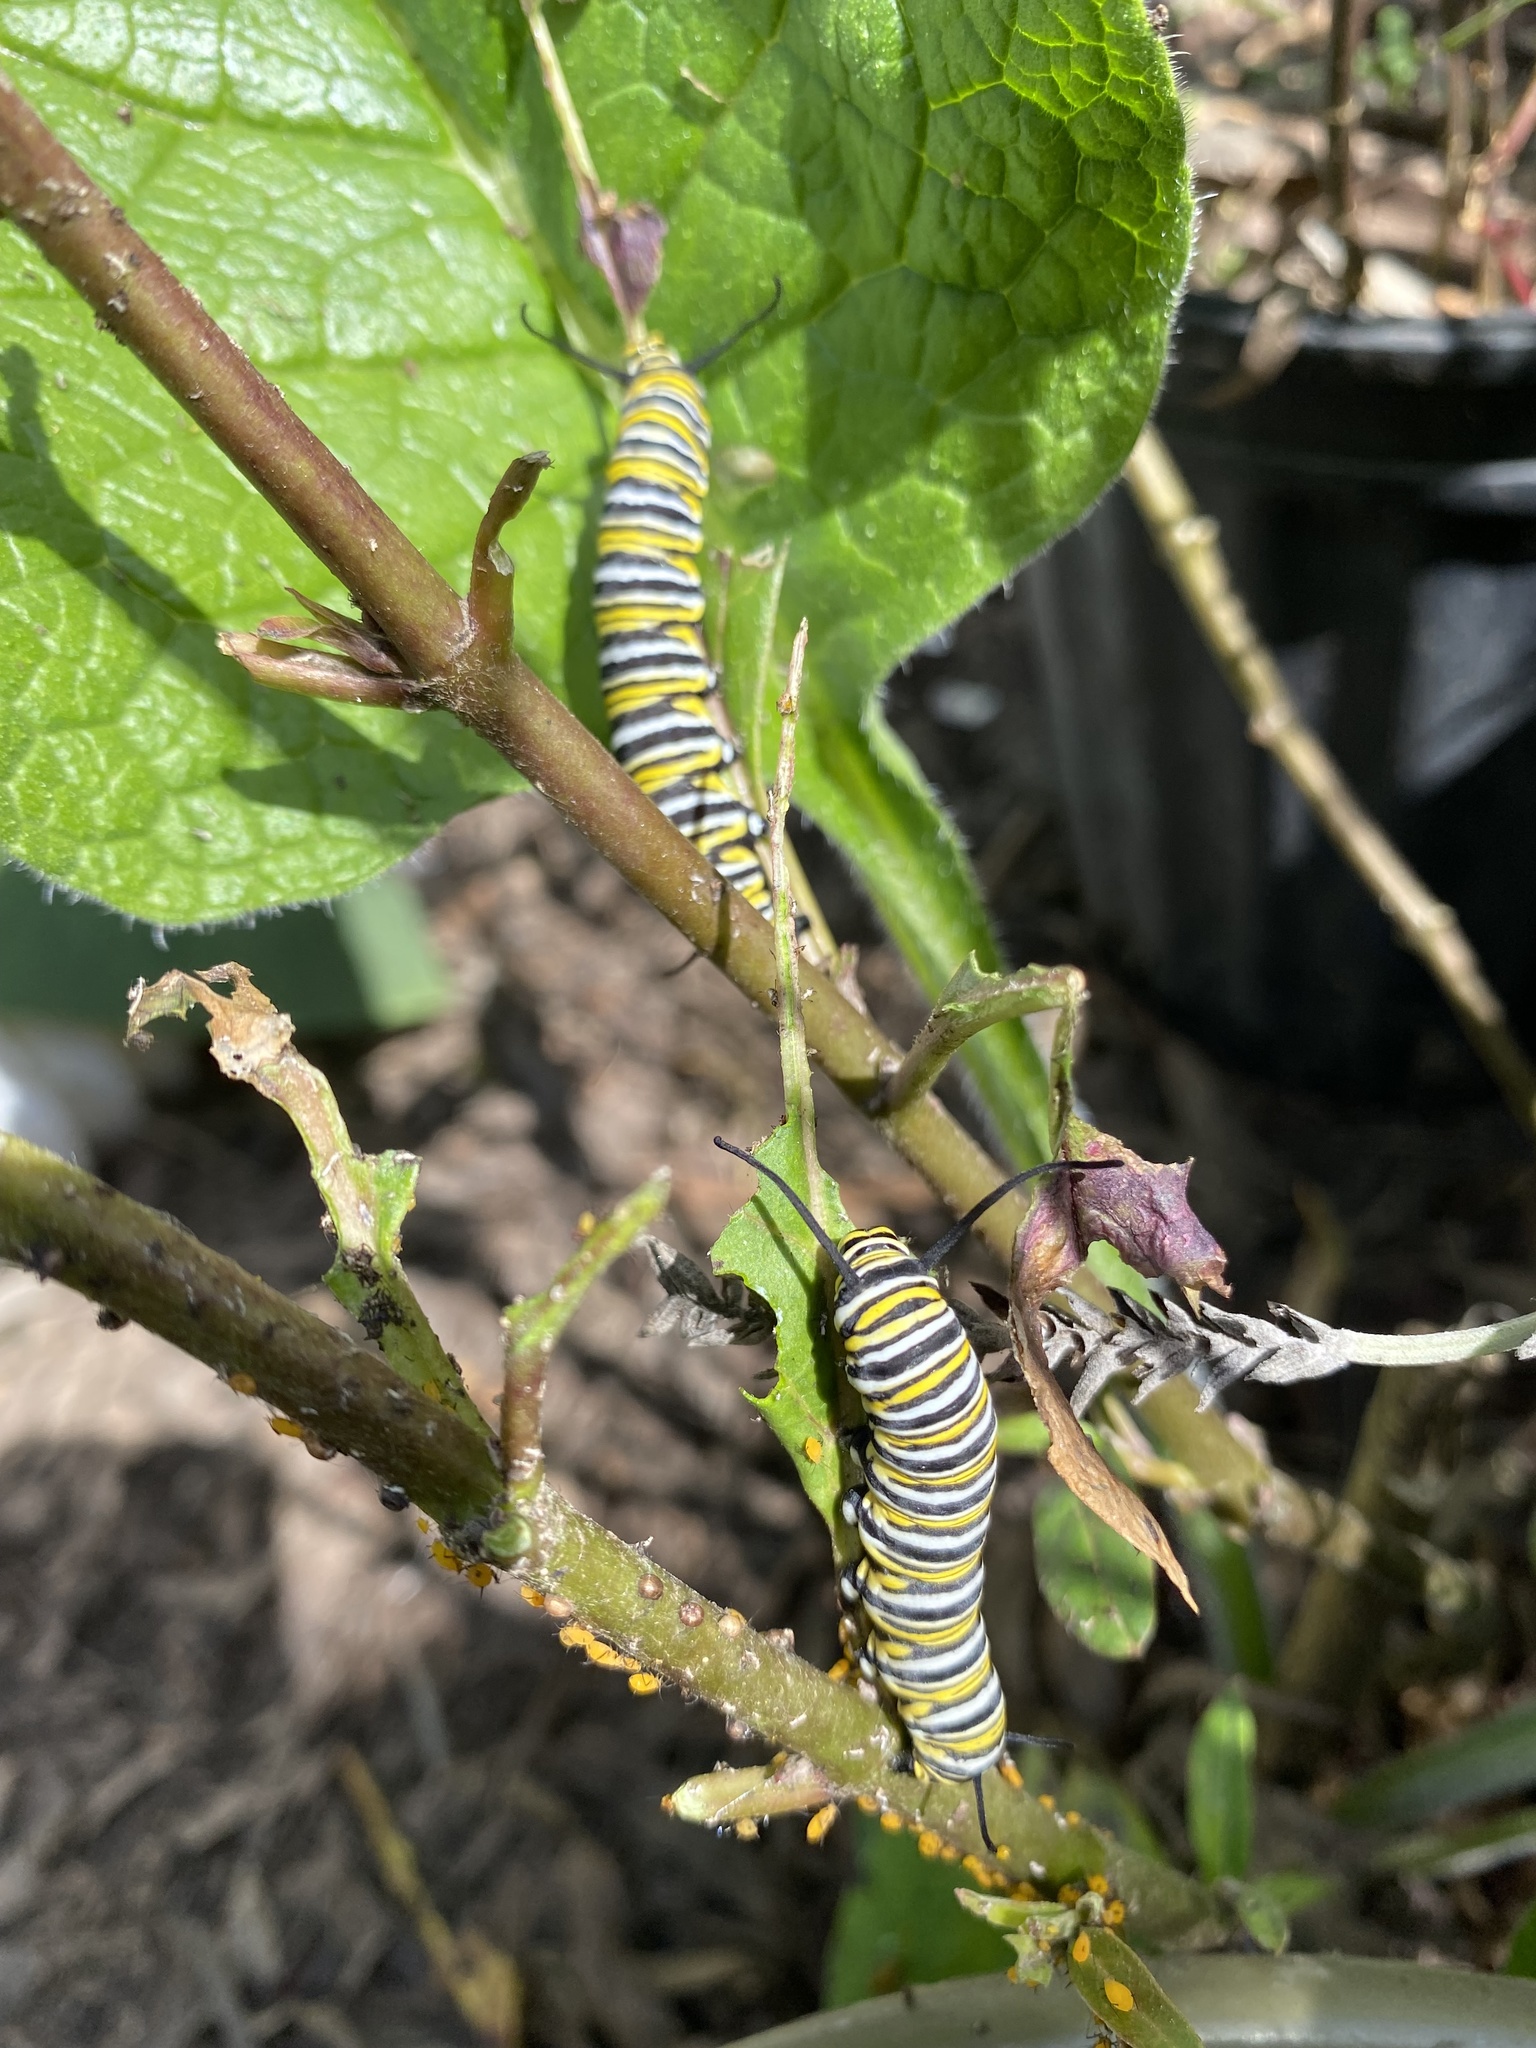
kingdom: Animalia
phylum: Arthropoda
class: Insecta
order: Lepidoptera
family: Nymphalidae
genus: Danaus
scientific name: Danaus plexippus
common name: Monarch
